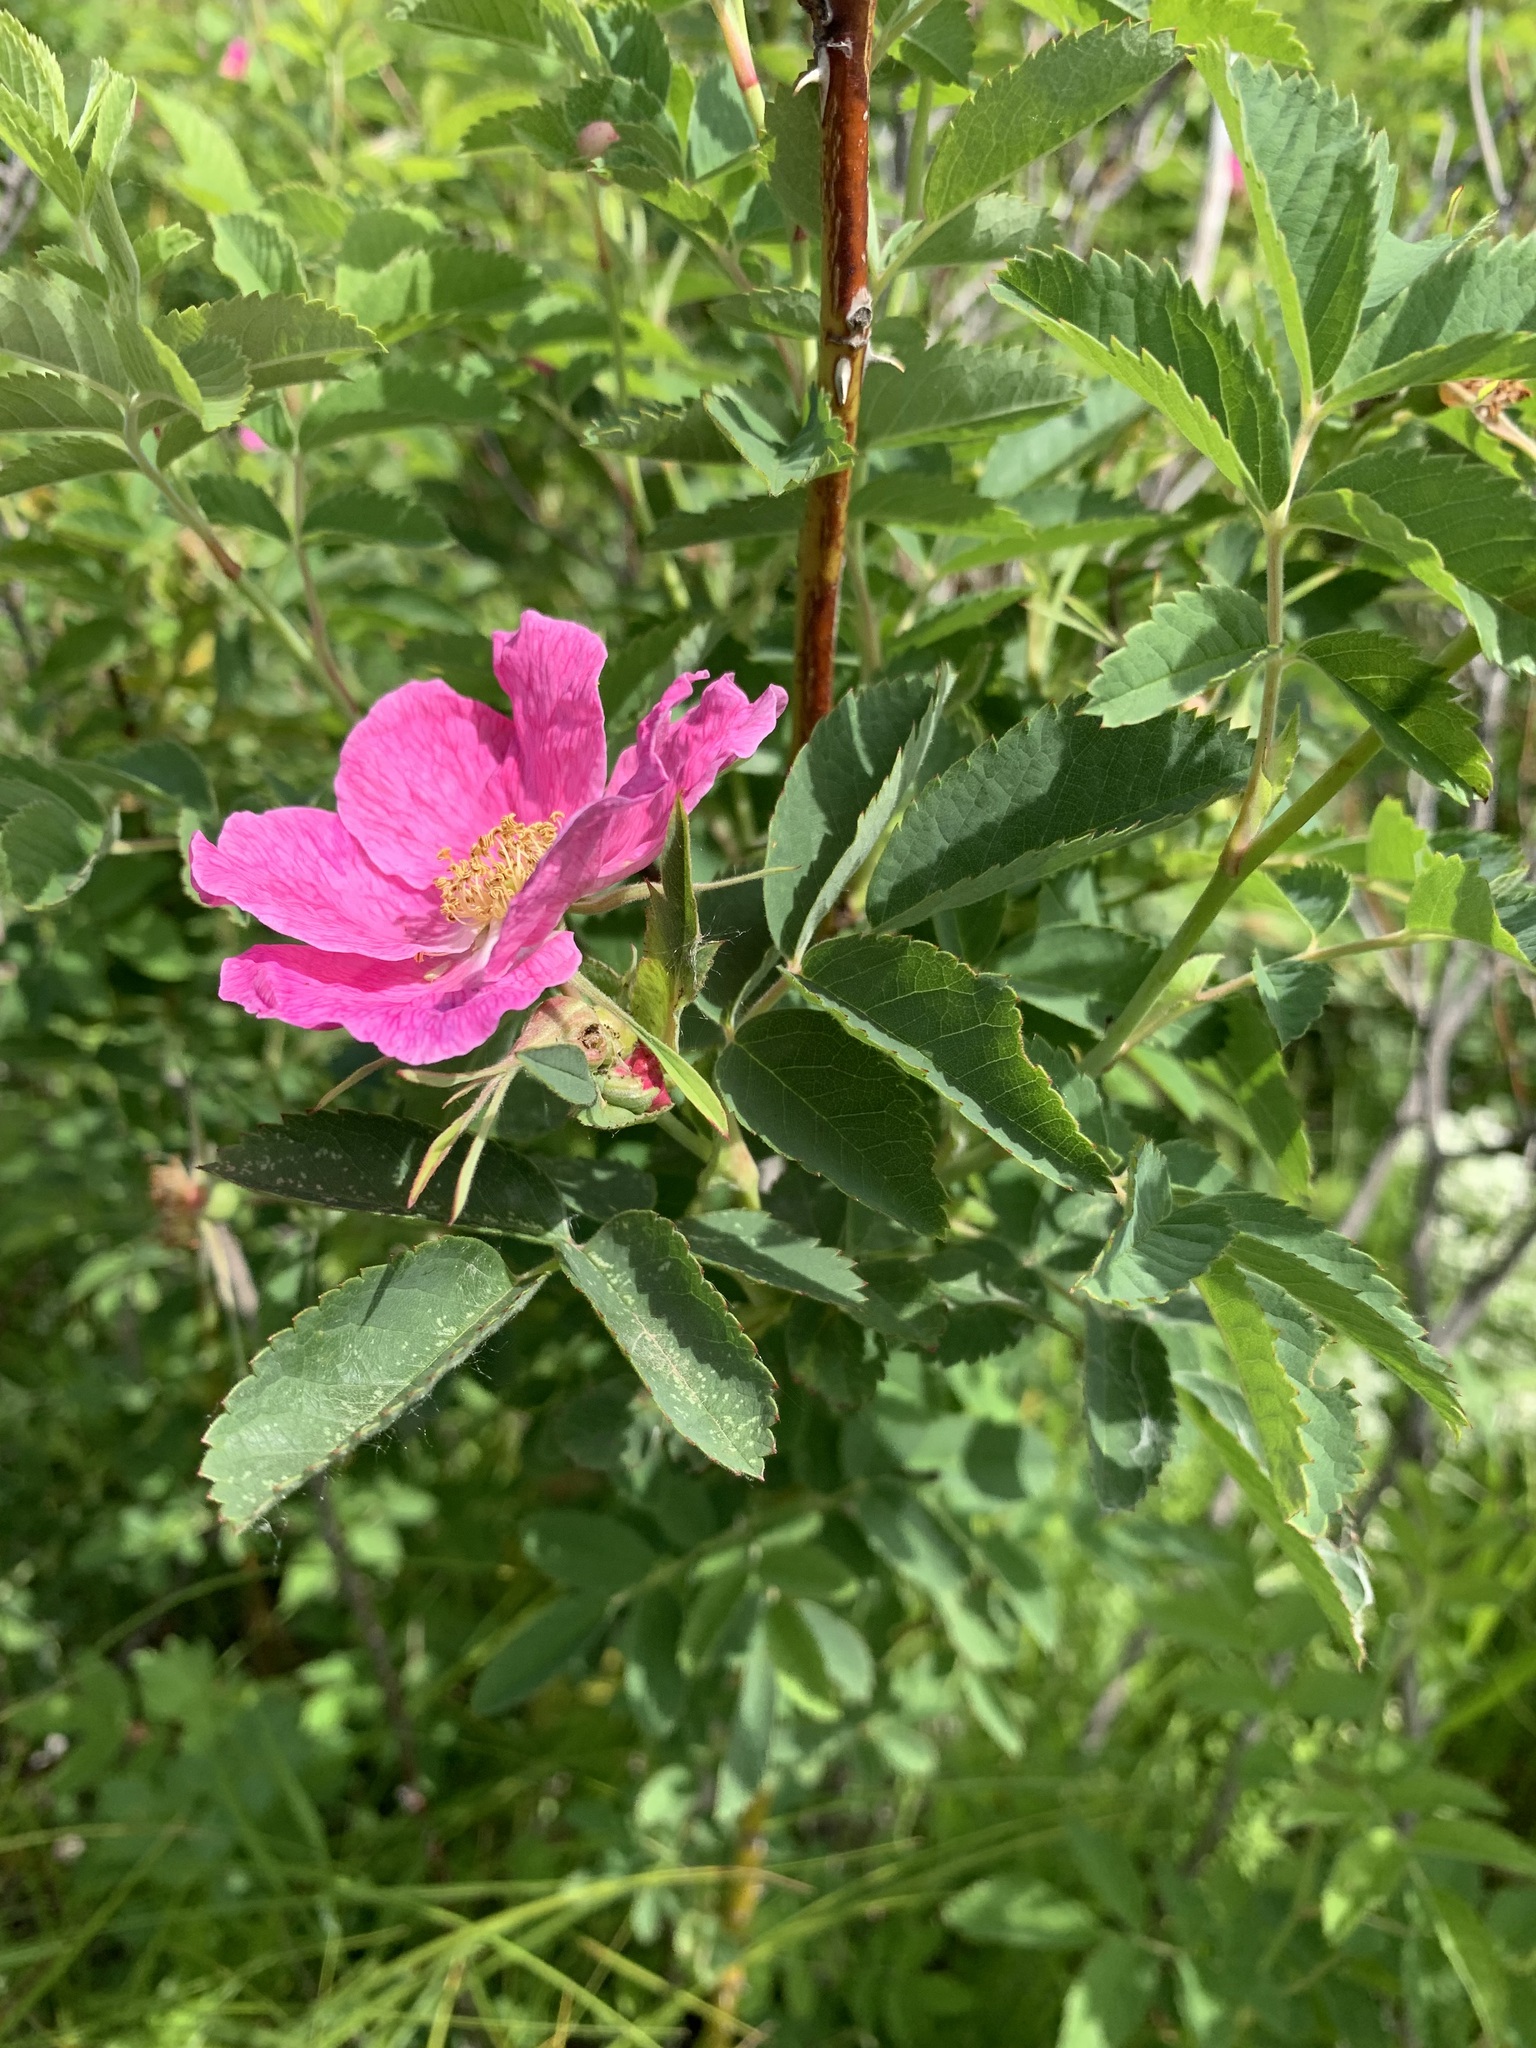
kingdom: Plantae
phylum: Tracheophyta
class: Magnoliopsida
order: Rosales
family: Rosaceae
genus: Rosa
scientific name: Rosa glabrifolia
